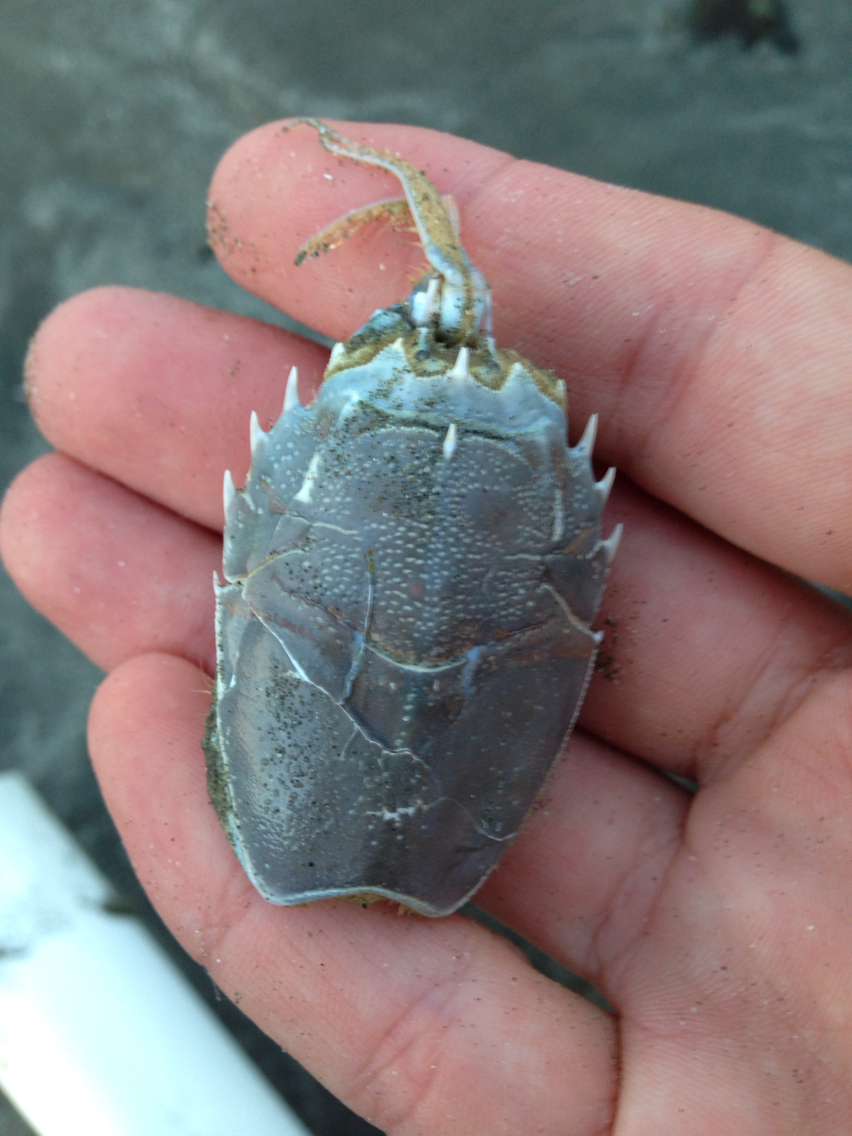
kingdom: Animalia
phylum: Arthropoda
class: Malacostraca
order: Decapoda
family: Blepharipodidae
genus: Blepharipoda
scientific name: Blepharipoda occidentalis
